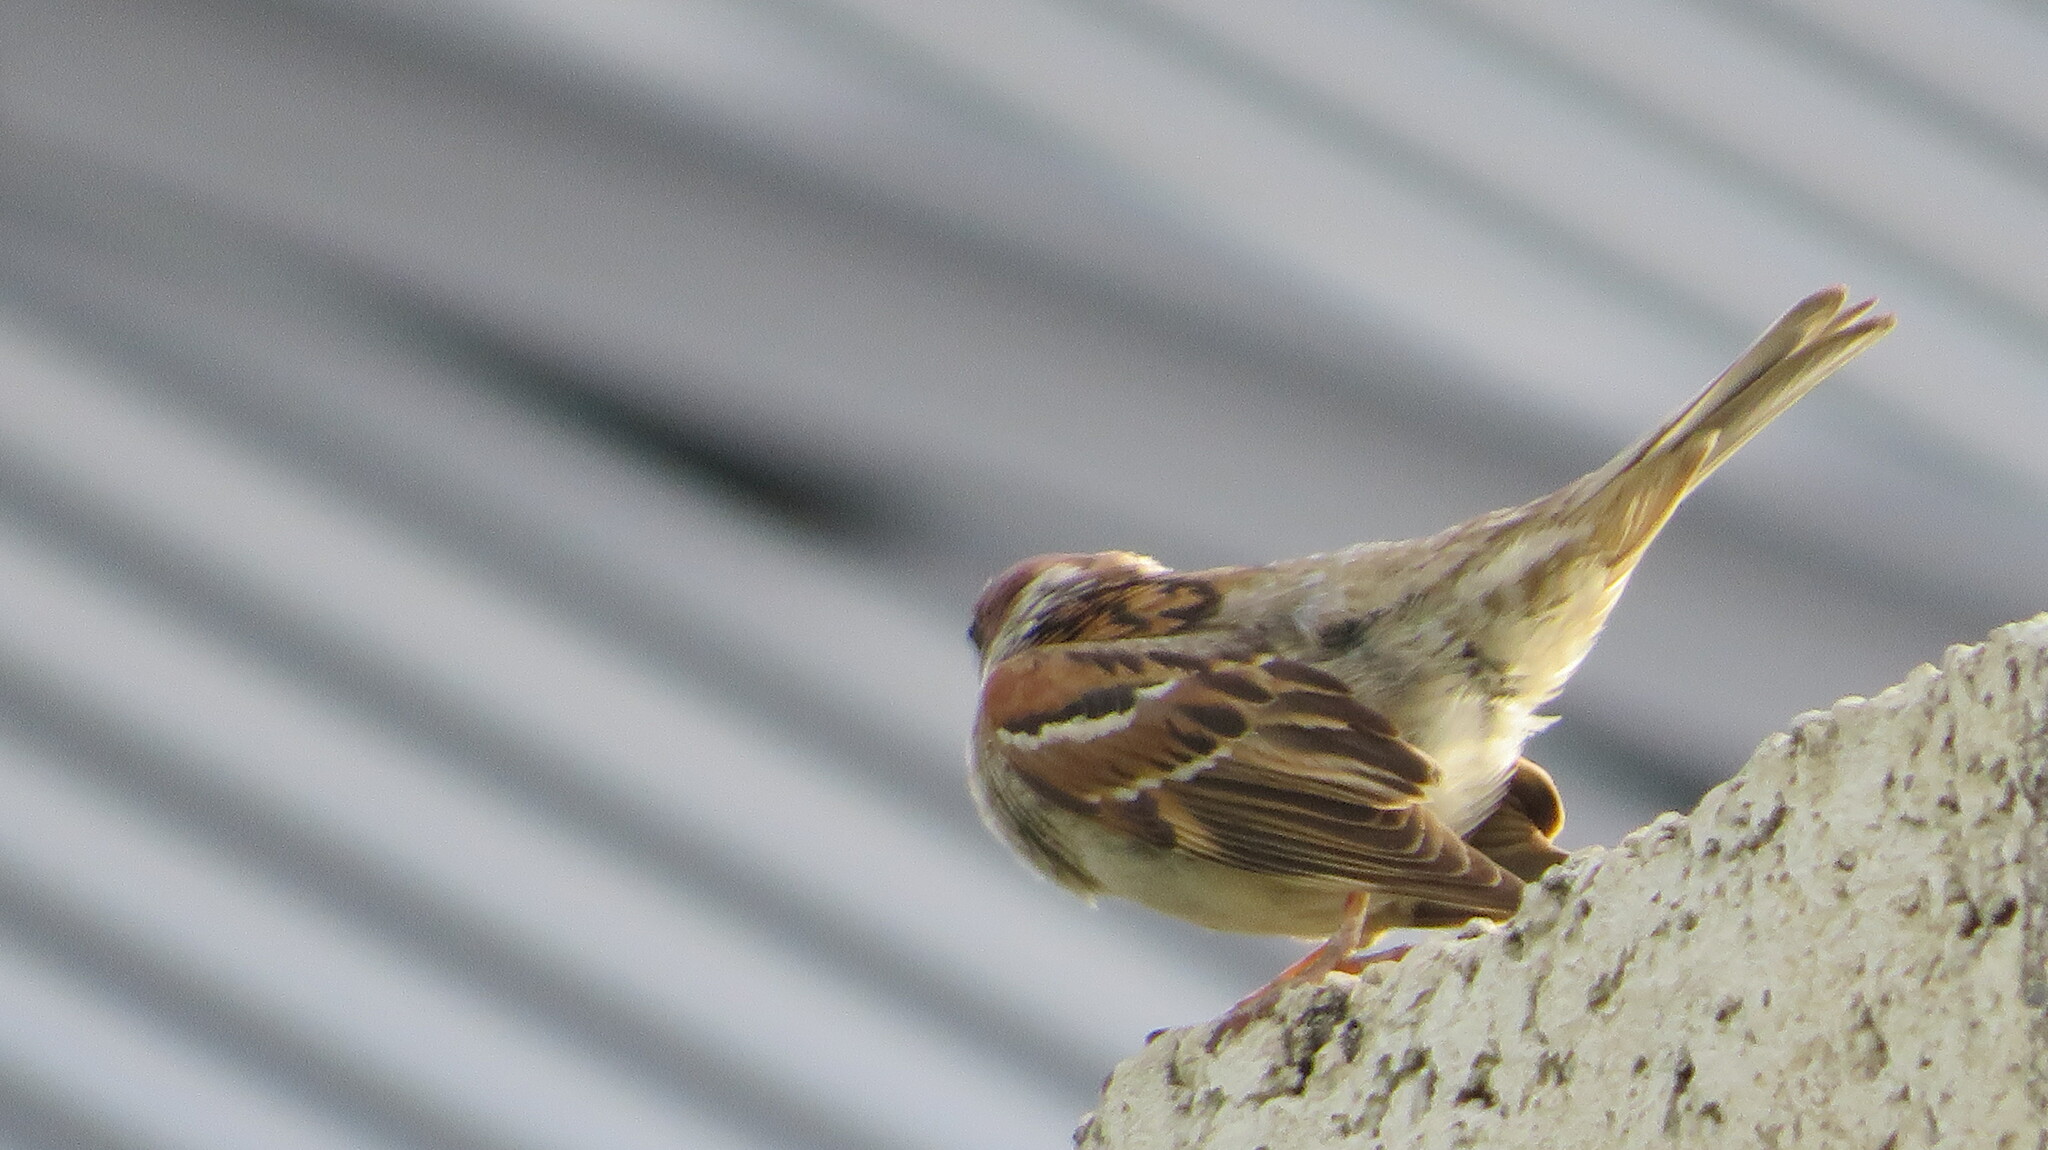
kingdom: Animalia
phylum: Chordata
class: Aves
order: Passeriformes
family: Passeridae
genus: Passer
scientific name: Passer montanus
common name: Eurasian tree sparrow
